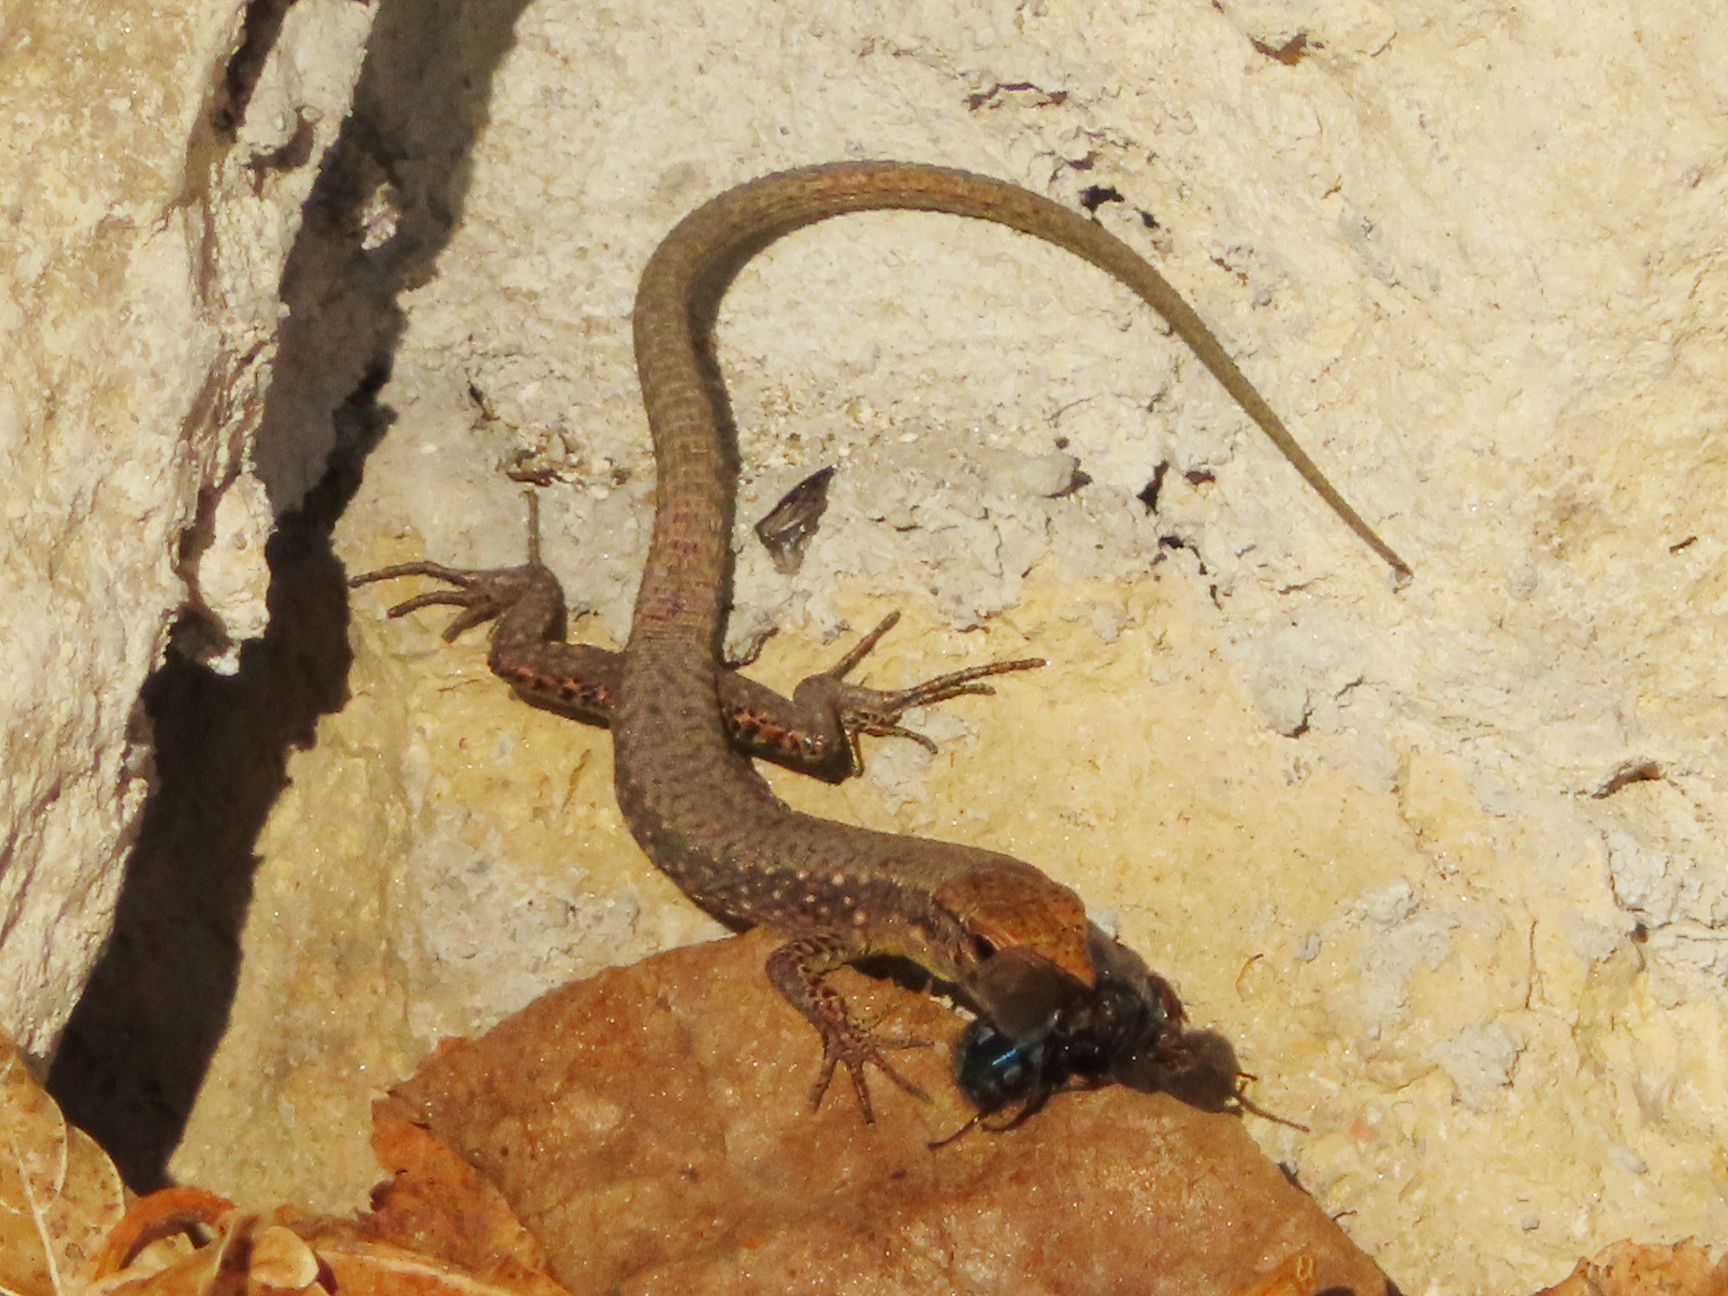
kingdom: Animalia
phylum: Chordata
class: Squamata
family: Lacertidae
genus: Darevskia
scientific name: Darevskia mixta
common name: Ajarian lizard
